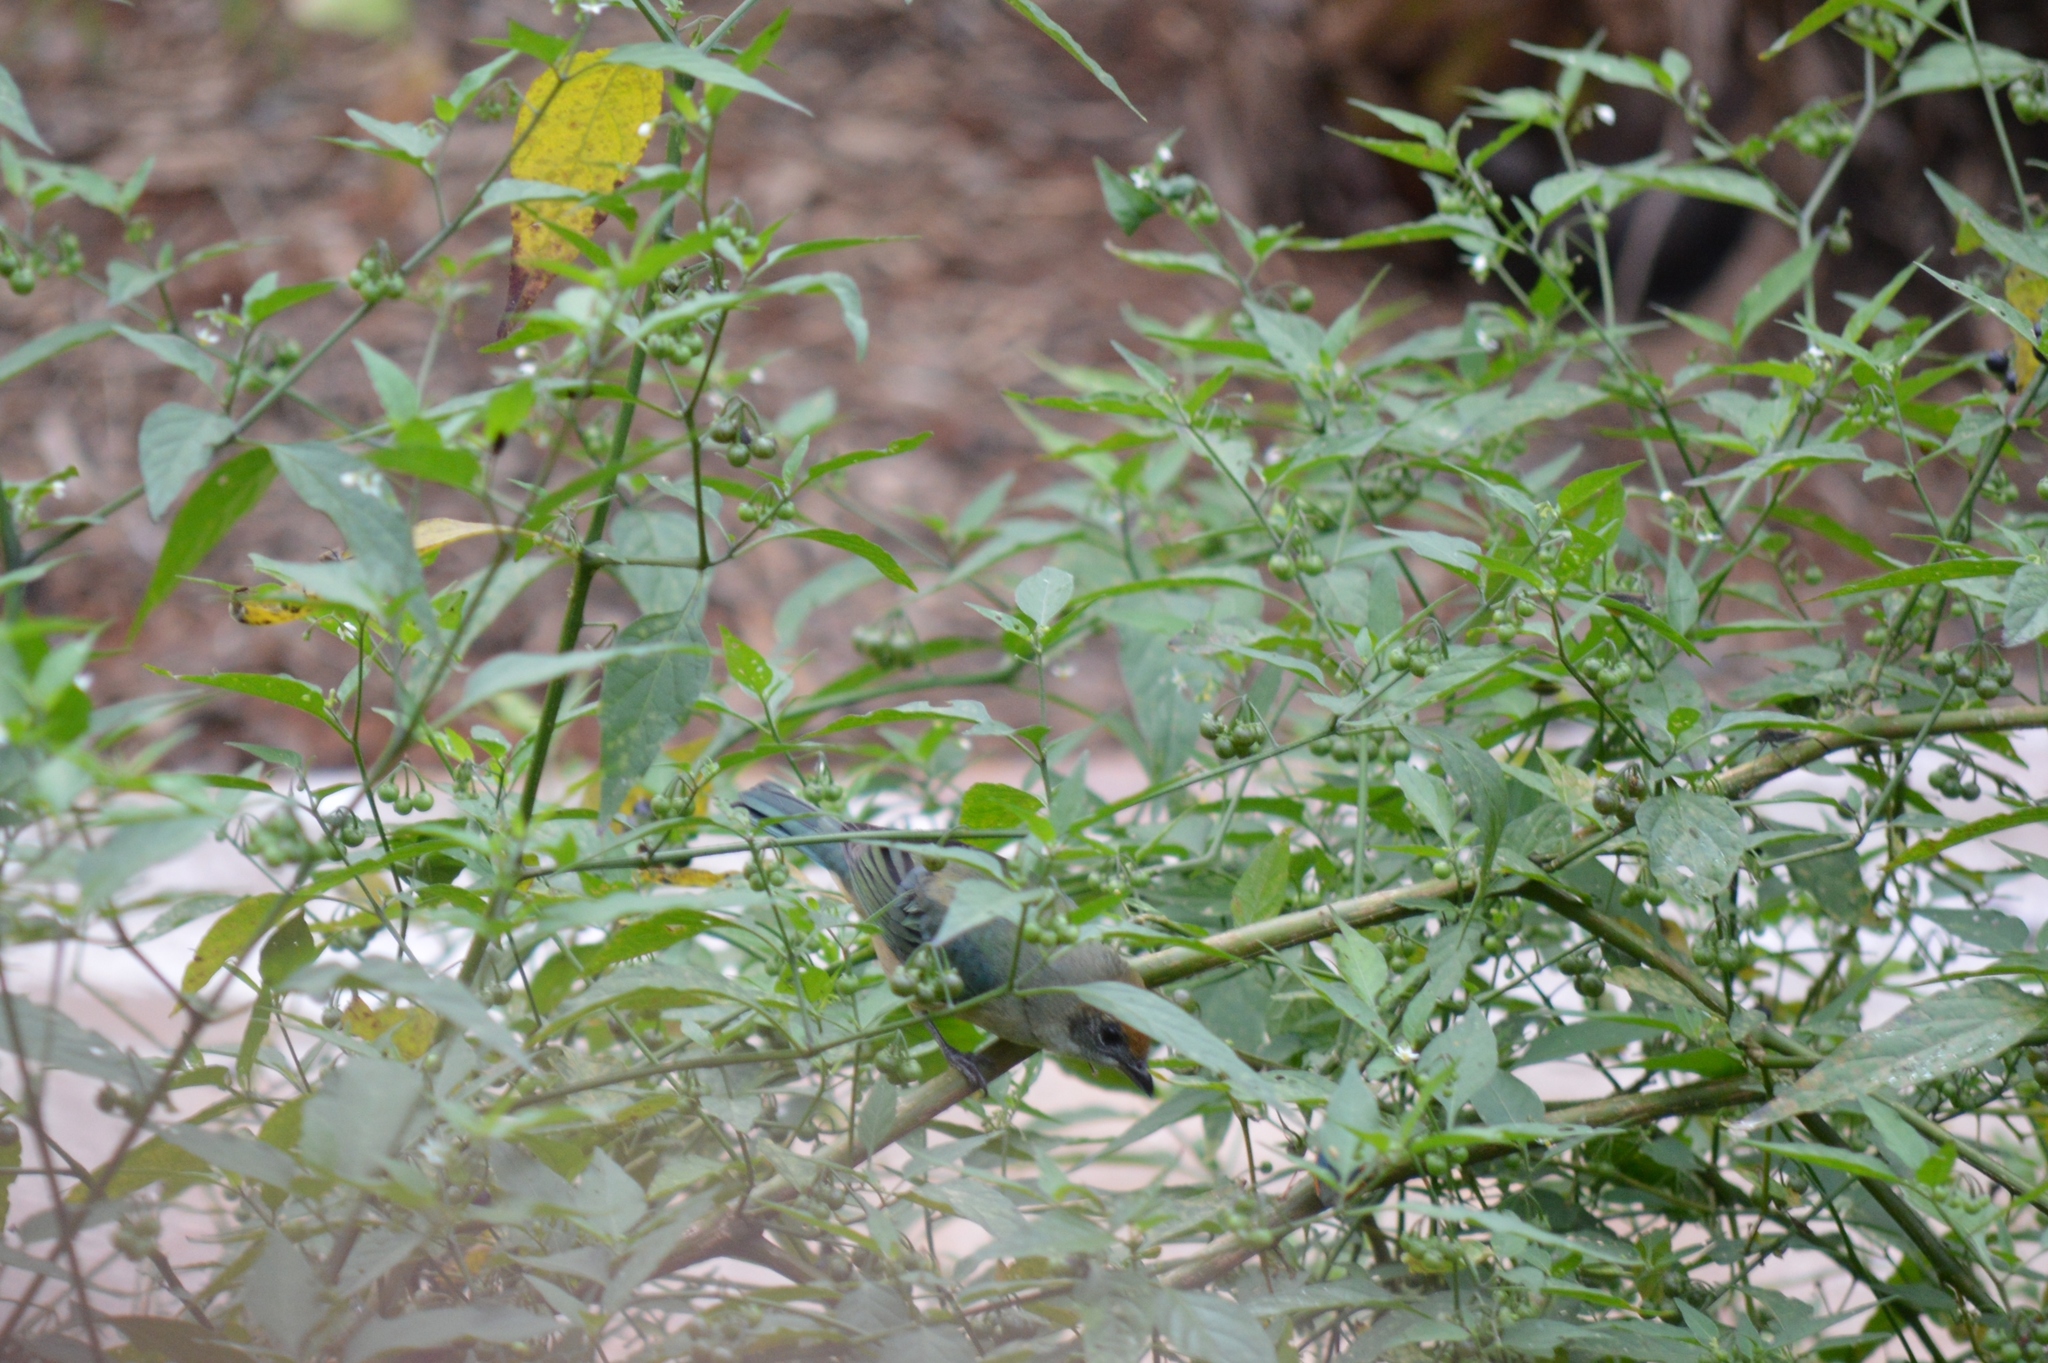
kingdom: Animalia
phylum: Chordata
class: Aves
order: Passeriformes
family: Thraupidae
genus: Stilpnia
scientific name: Stilpnia cayana
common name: Burnished-buff tanager
